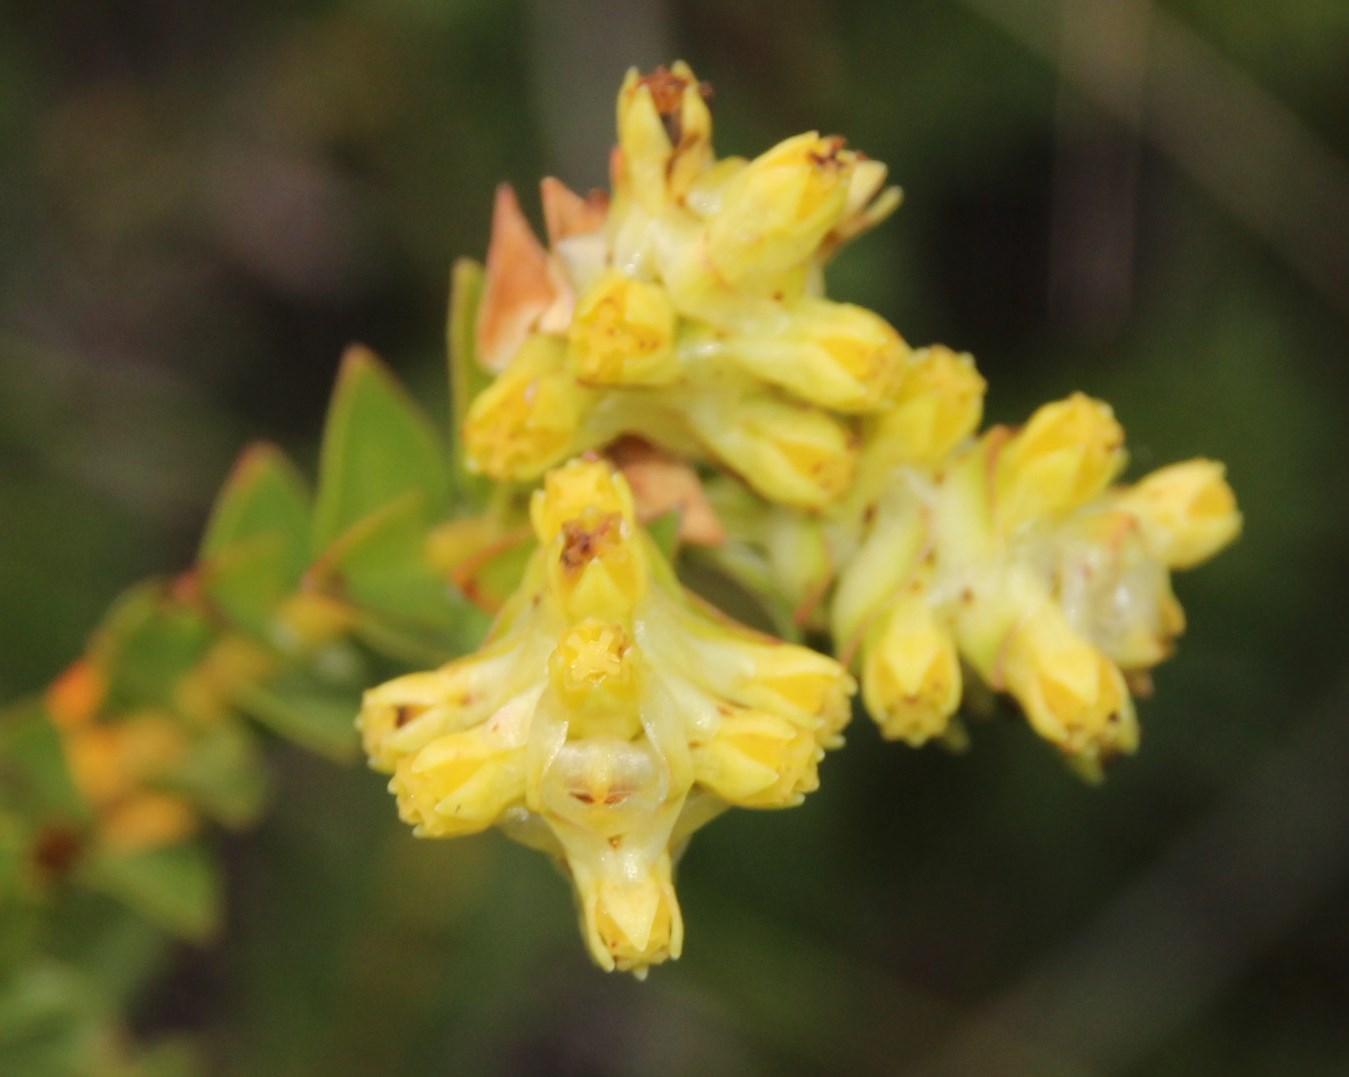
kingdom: Plantae
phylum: Tracheophyta
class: Magnoliopsida
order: Myrtales
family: Penaeaceae
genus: Penaea
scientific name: Penaea mucronata
